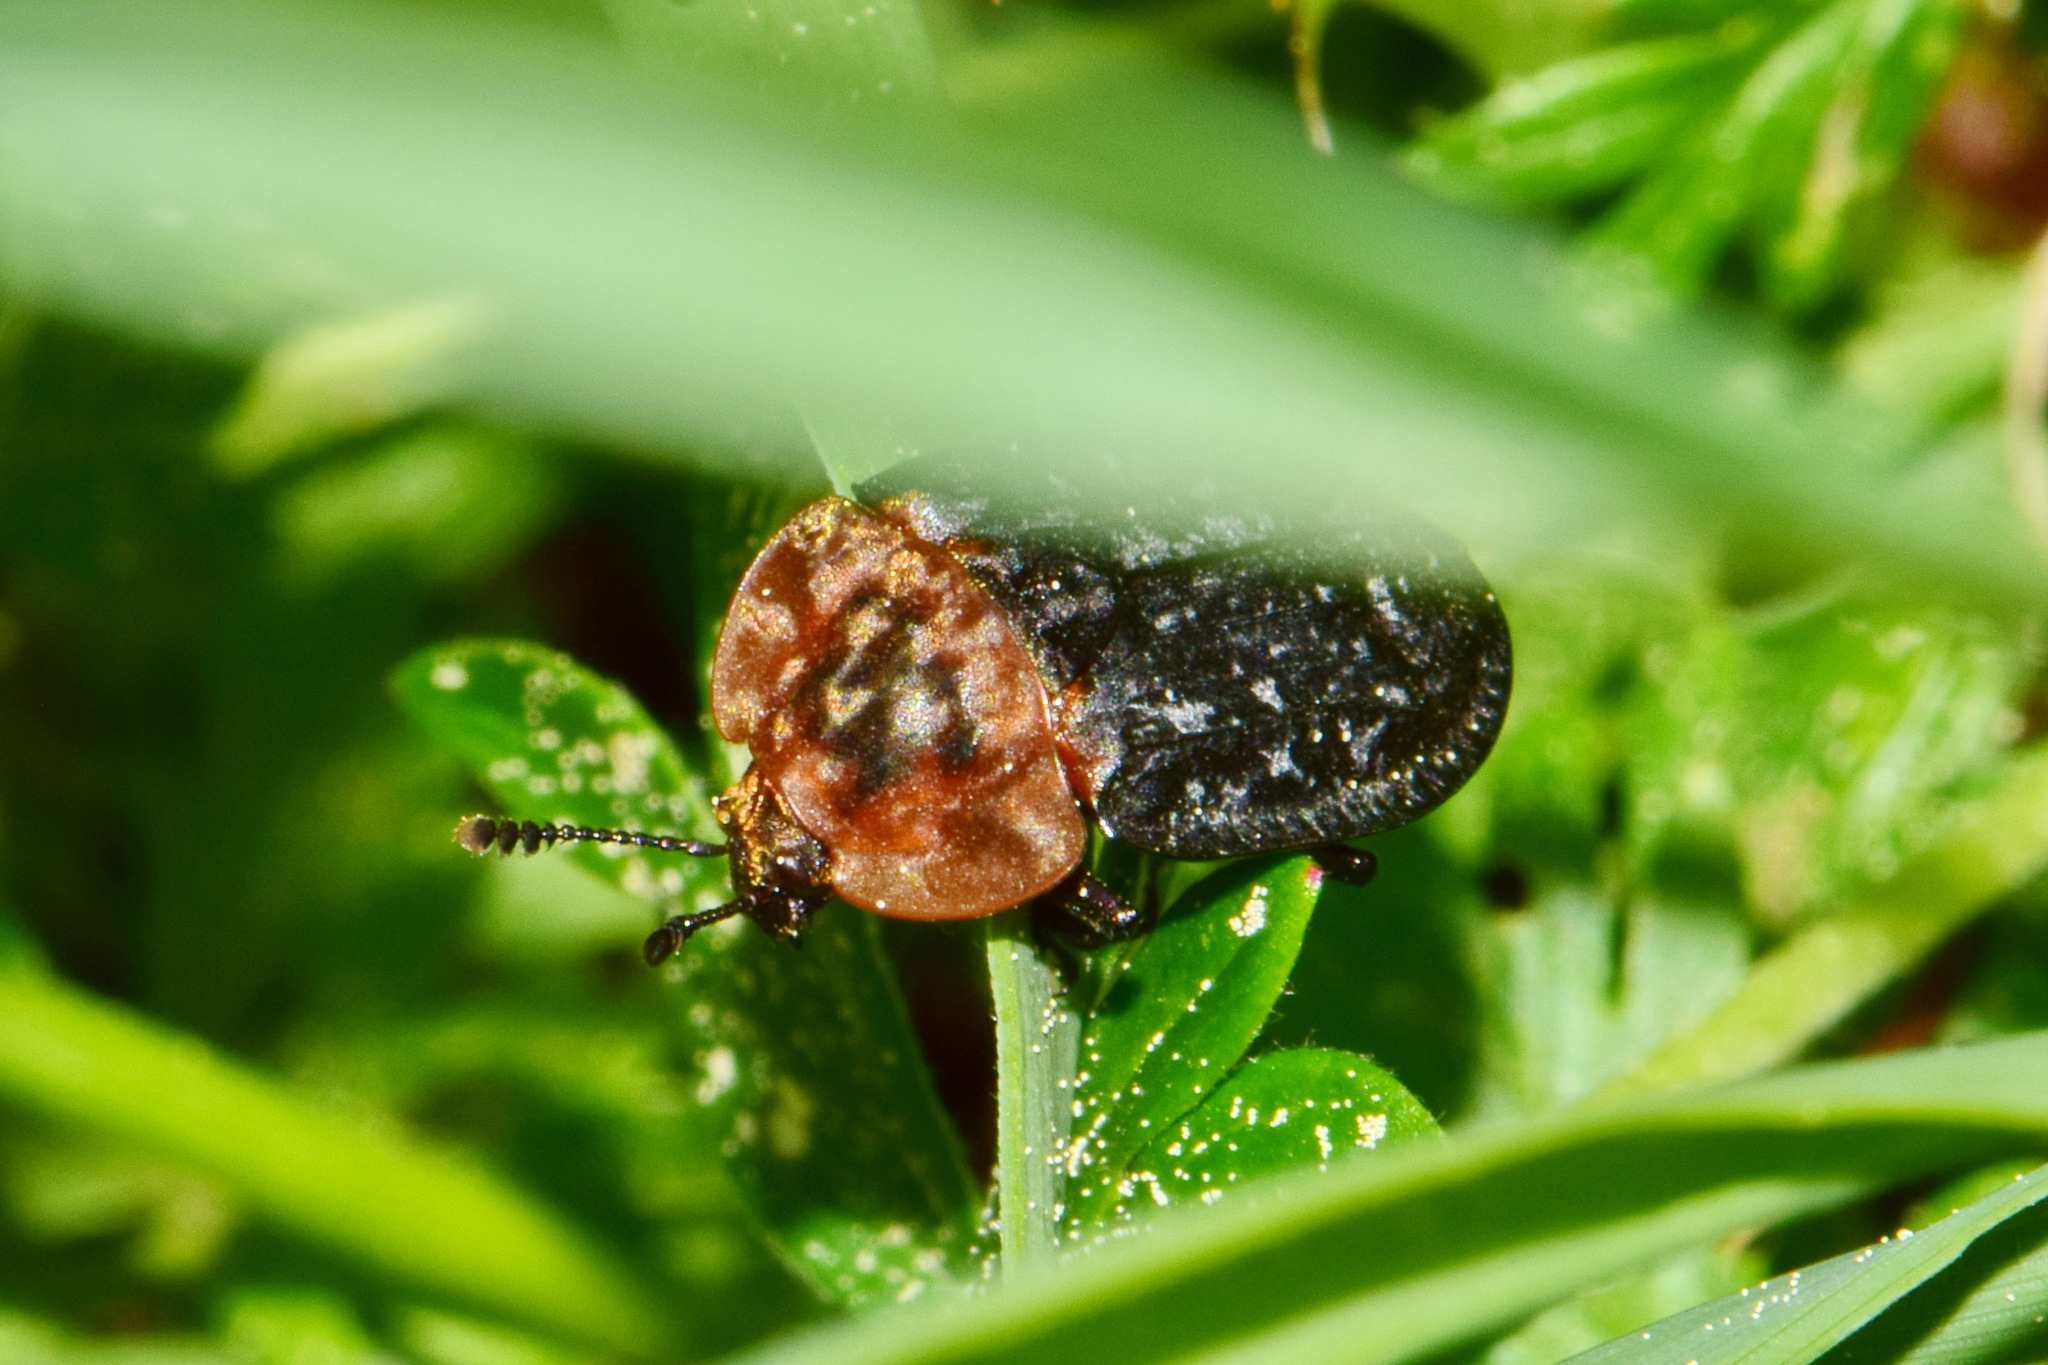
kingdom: Animalia
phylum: Arthropoda
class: Insecta
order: Coleoptera
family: Staphylinidae
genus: Oiceoptoma
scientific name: Oiceoptoma thoracicum
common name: Red-breasted carrion beetle
